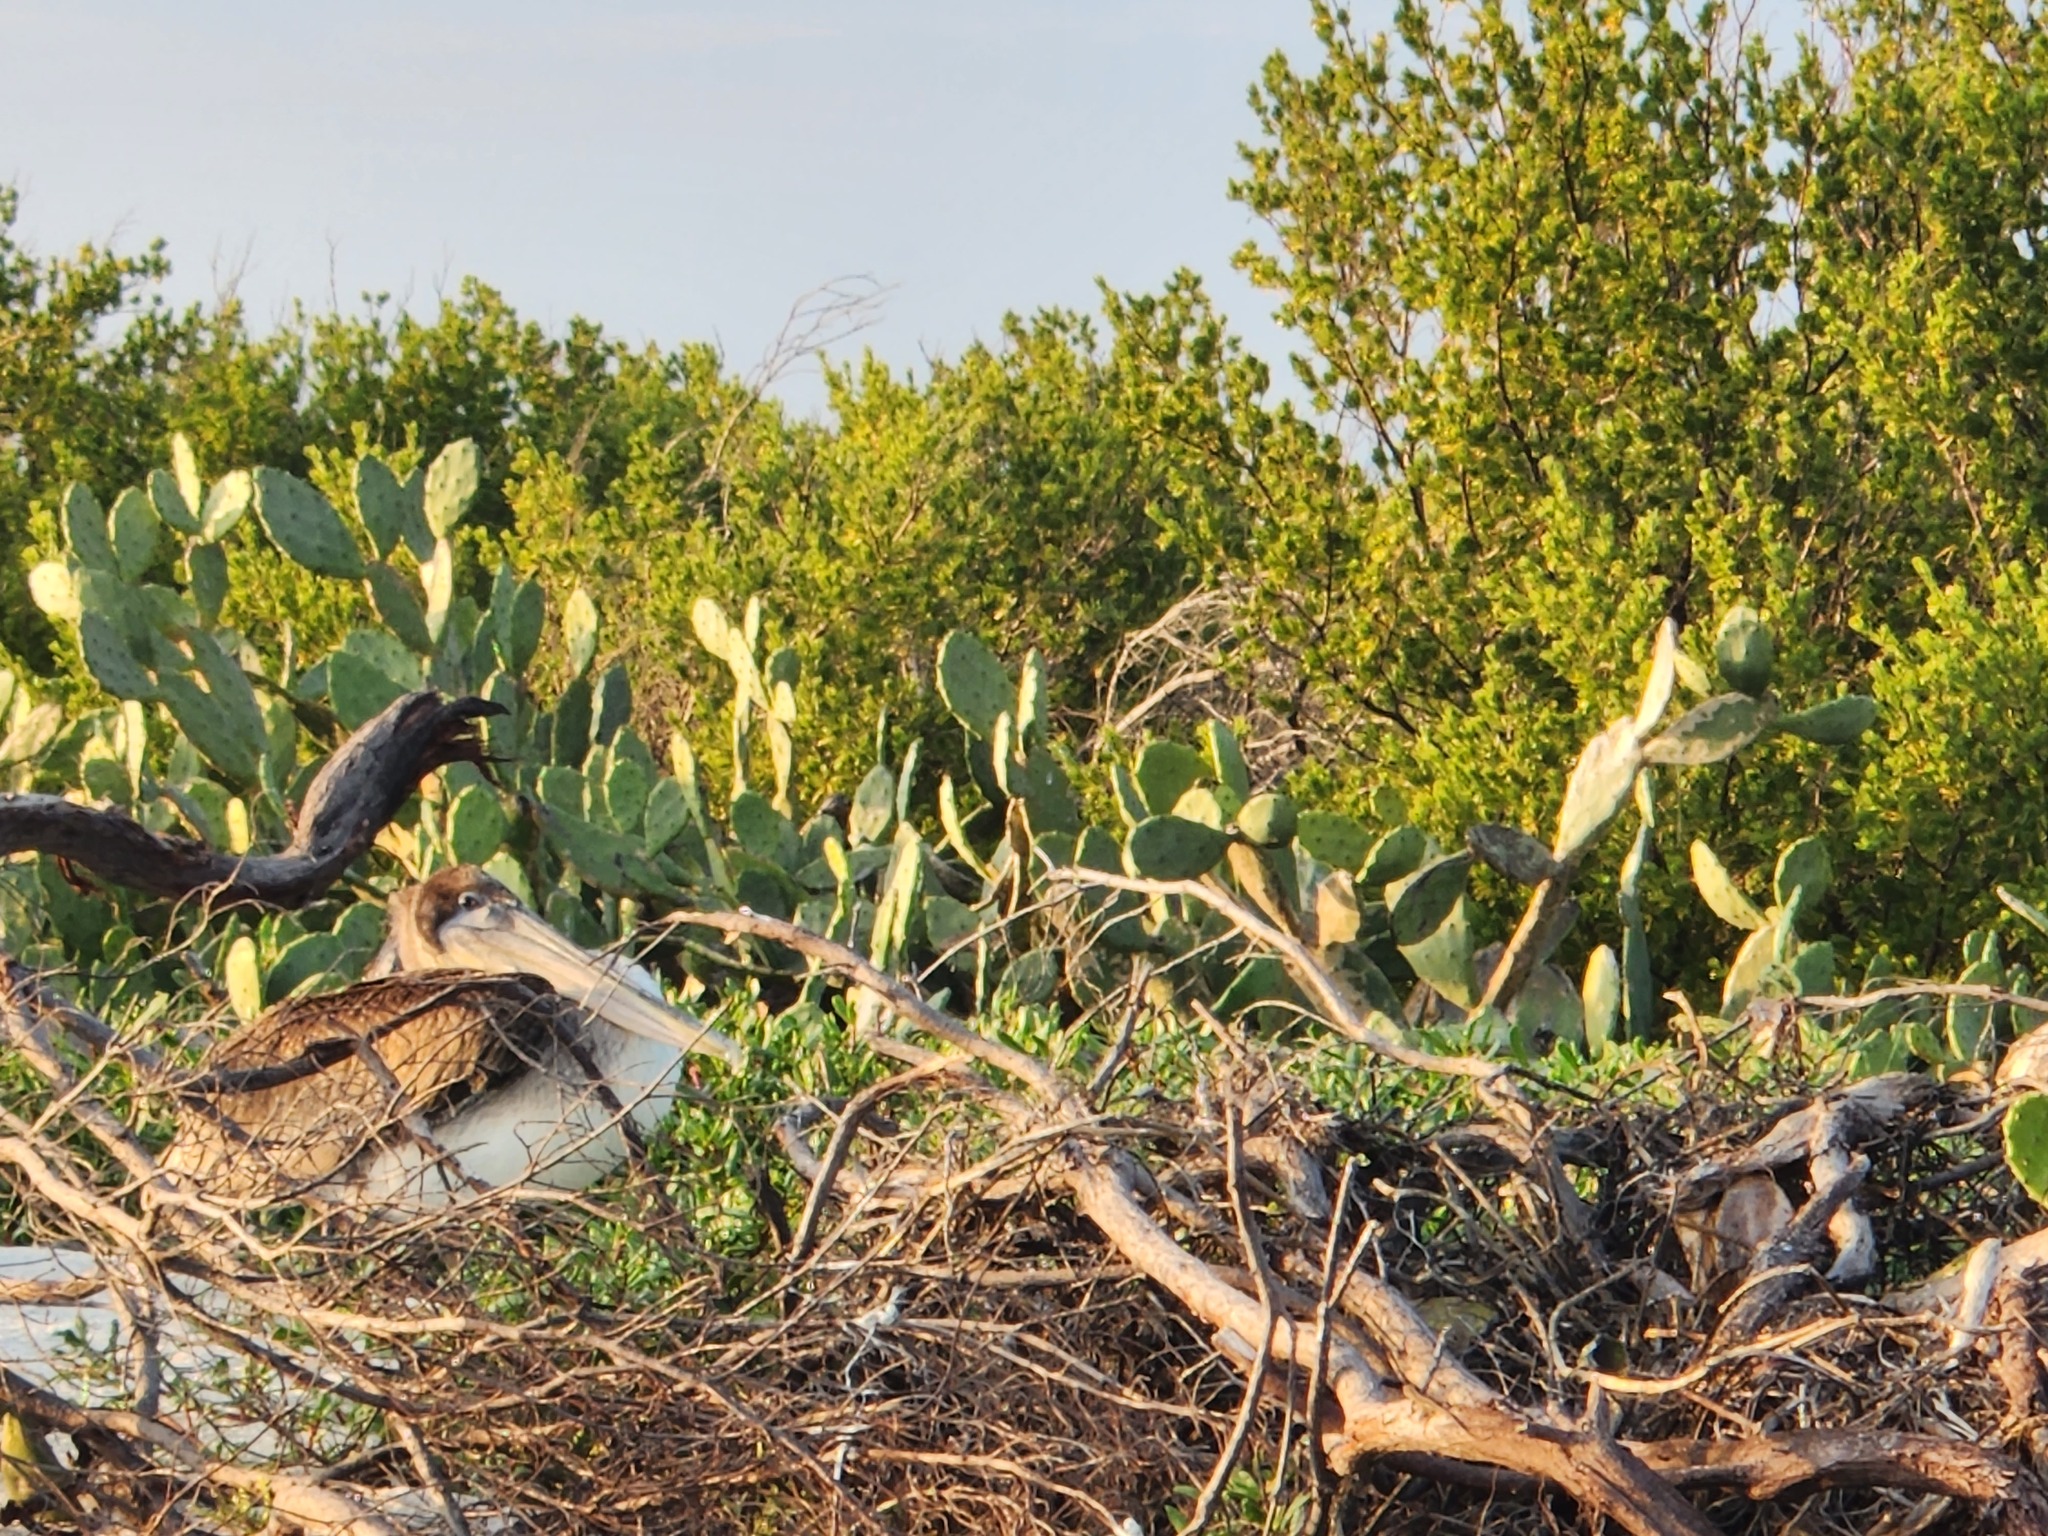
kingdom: Animalia
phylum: Chordata
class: Aves
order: Pelecaniformes
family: Pelecanidae
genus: Pelecanus
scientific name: Pelecanus occidentalis
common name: Brown pelican
